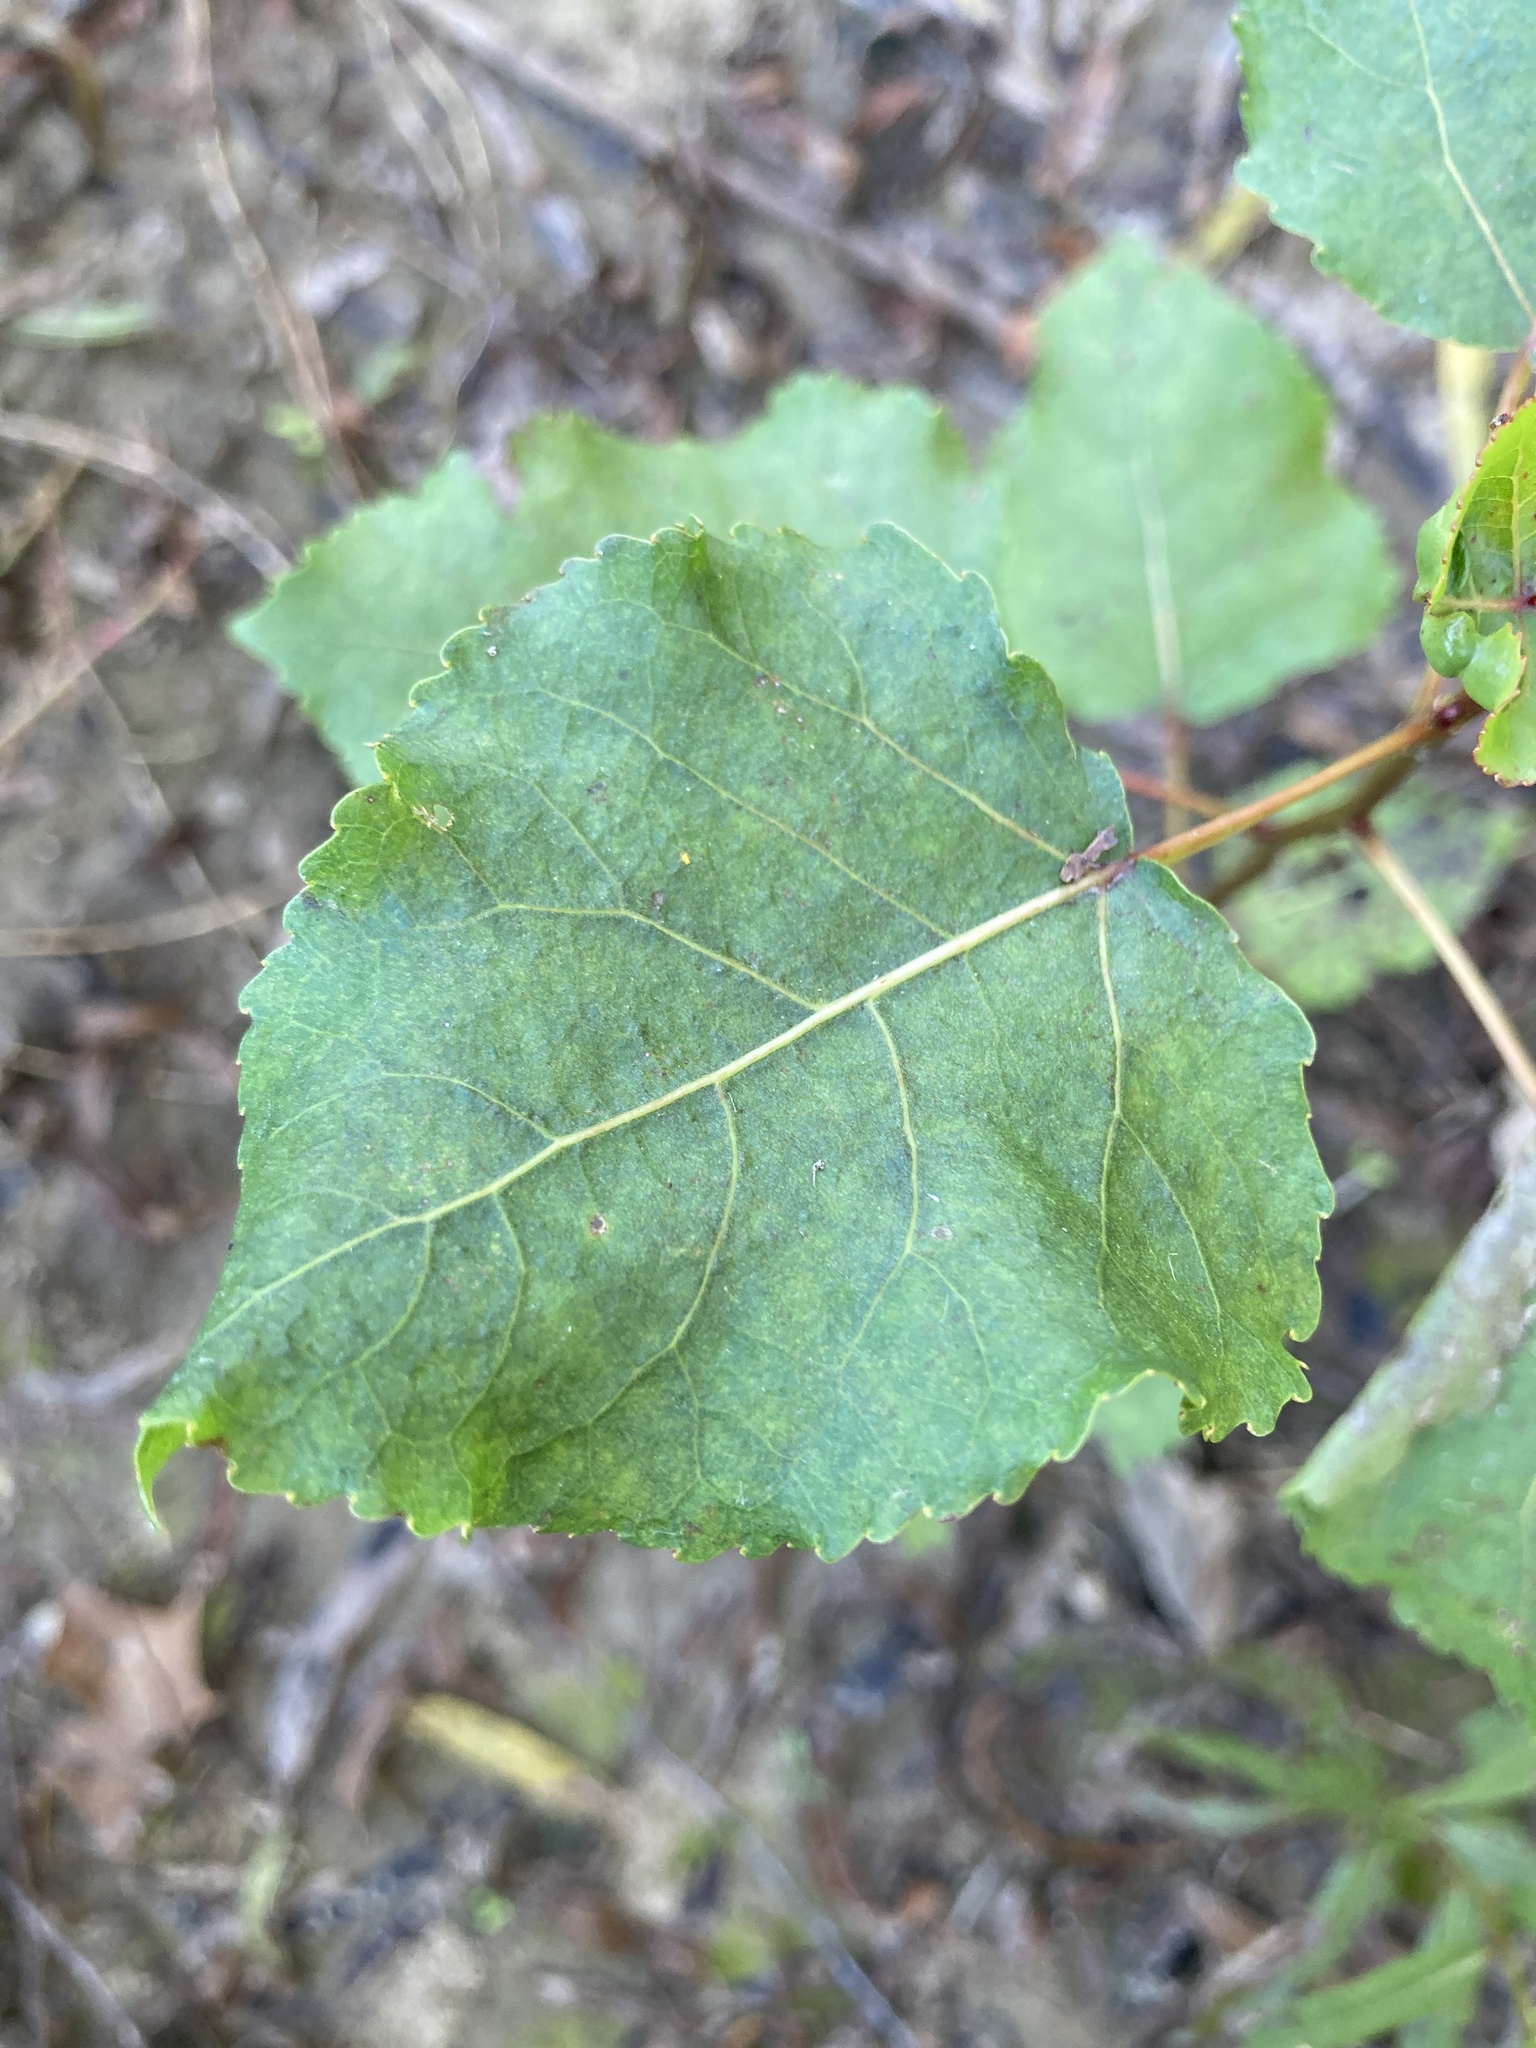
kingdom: Plantae
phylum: Tracheophyta
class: Magnoliopsida
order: Malpighiales
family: Salicaceae
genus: Populus
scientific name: Populus deltoides
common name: Eastern cottonwood
